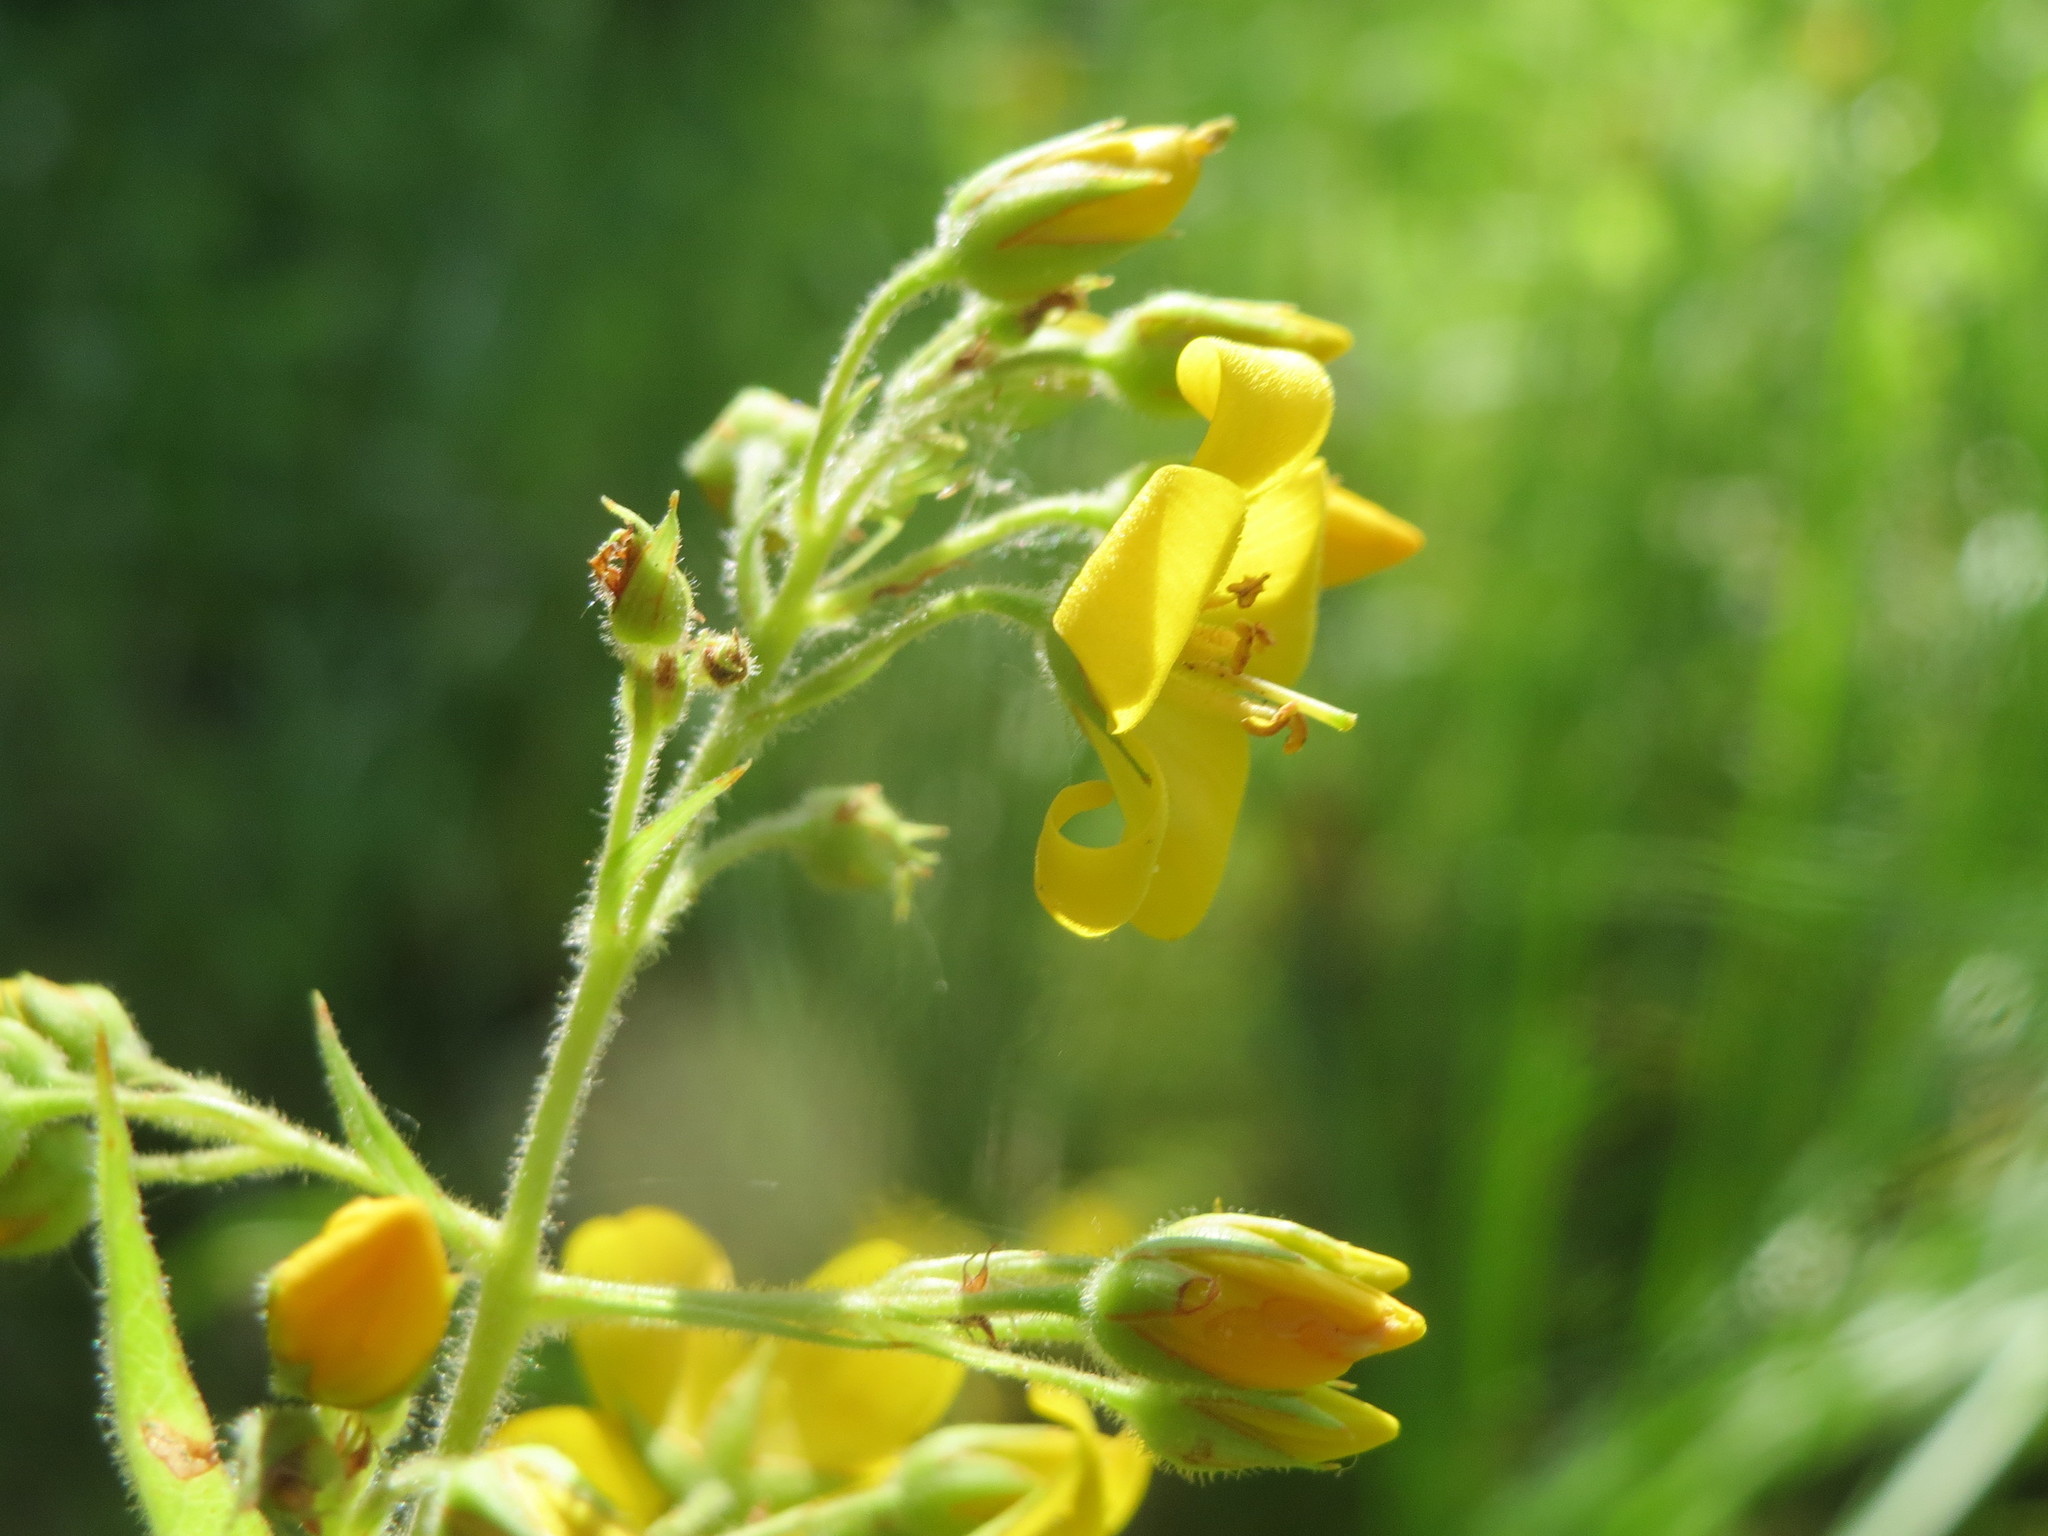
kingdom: Plantae
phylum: Tracheophyta
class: Magnoliopsida
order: Ericales
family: Primulaceae
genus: Lysimachia
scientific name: Lysimachia vulgaris
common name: Yellow loosestrife
